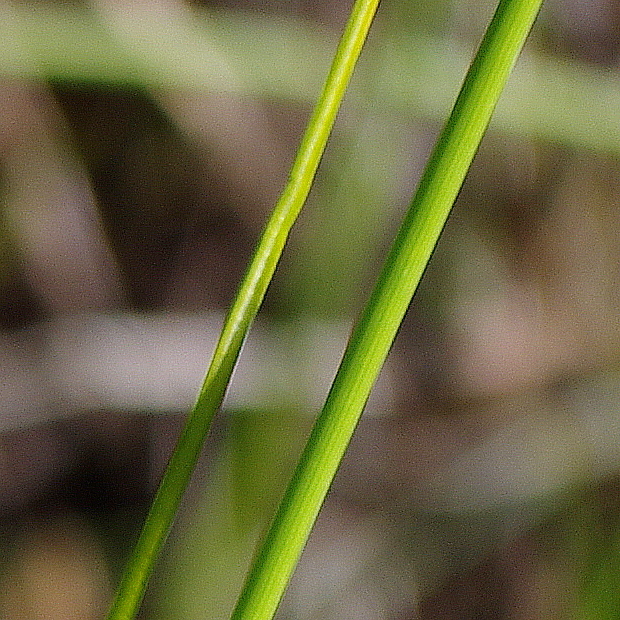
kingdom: Plantae
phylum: Tracheophyta
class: Liliopsida
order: Poales
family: Cyperaceae
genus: Eriophorum
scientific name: Eriophorum angustifolium
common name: Common cottongrass
